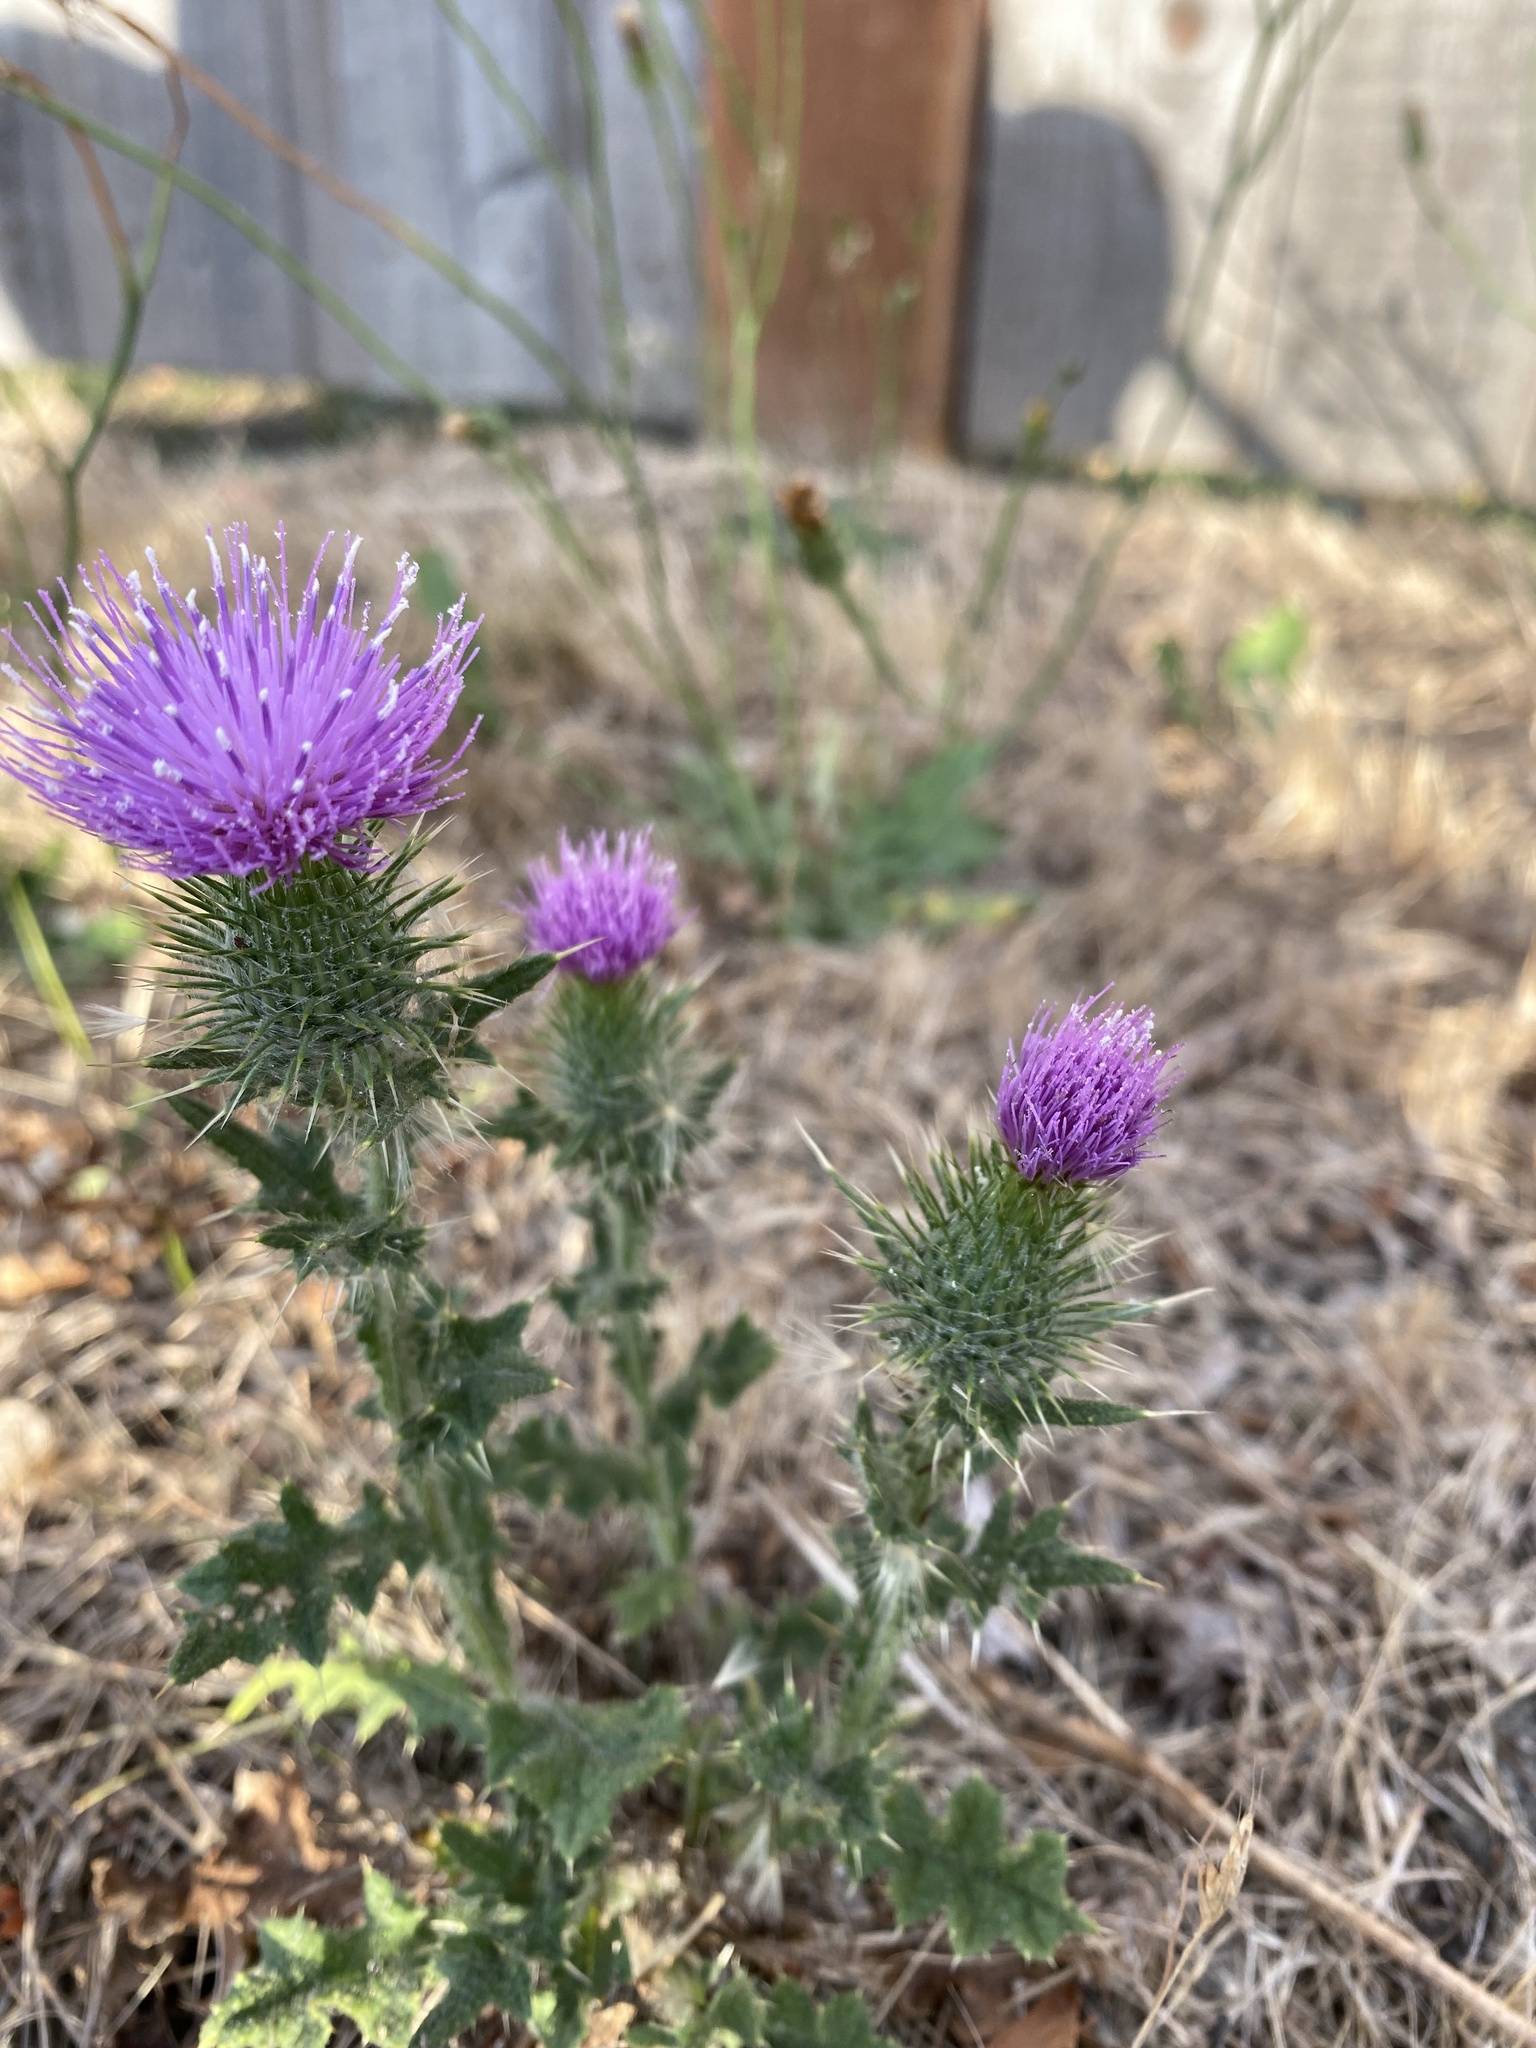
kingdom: Plantae
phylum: Tracheophyta
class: Magnoliopsida
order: Asterales
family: Asteraceae
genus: Cirsium
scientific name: Cirsium vulgare
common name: Bull thistle
